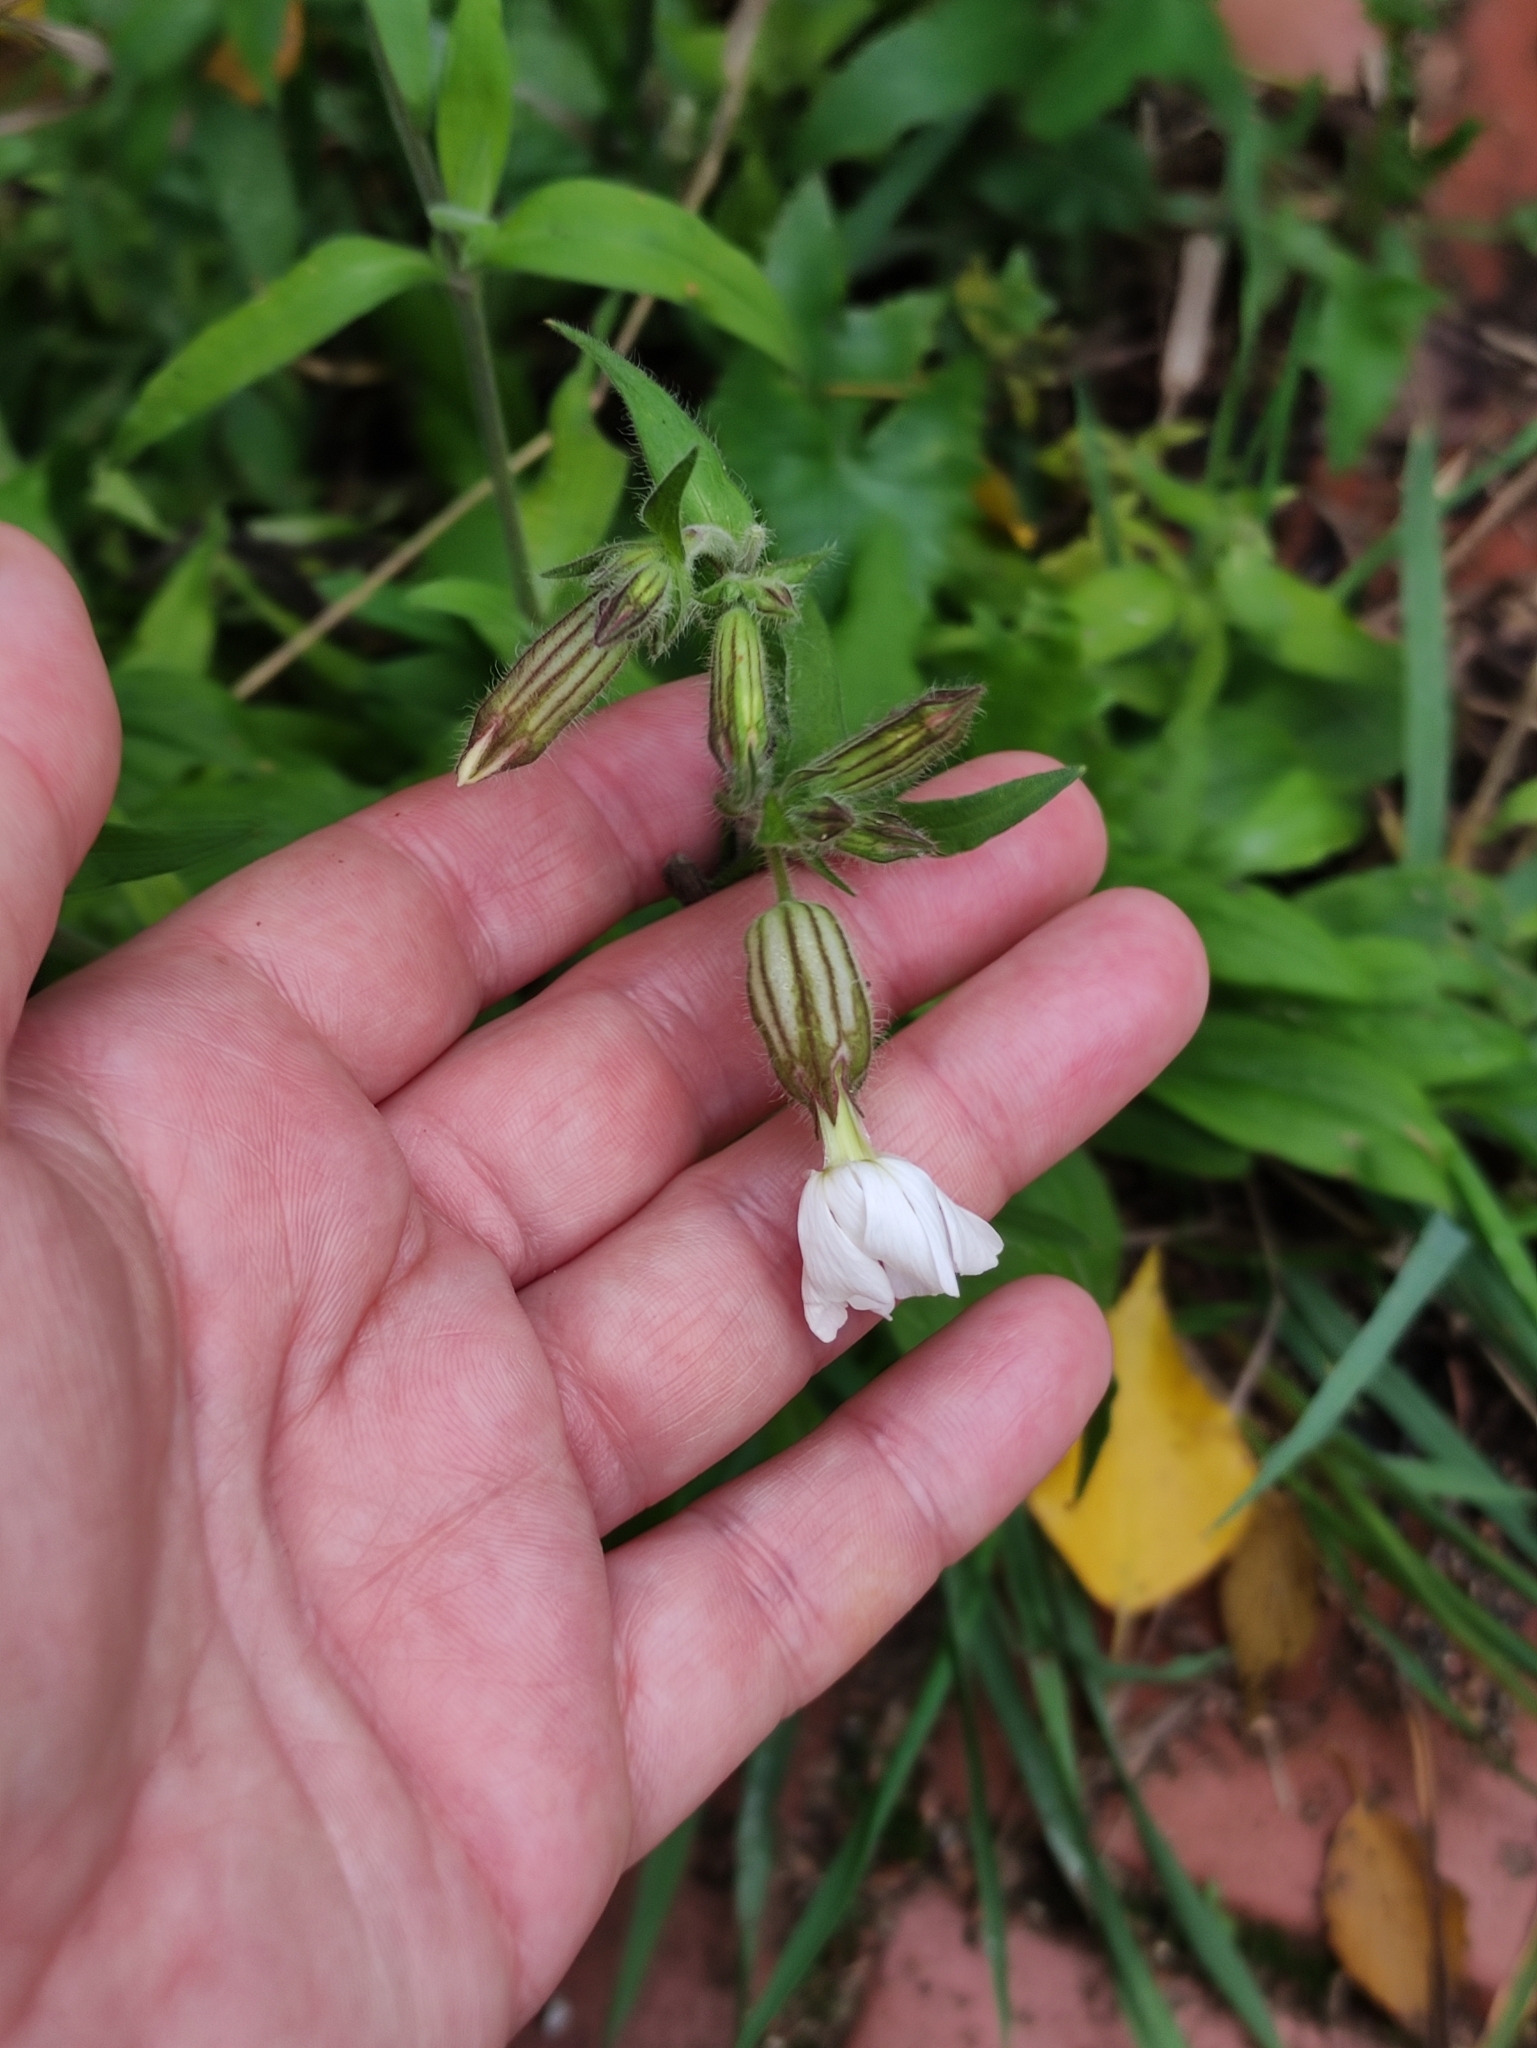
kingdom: Plantae
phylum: Tracheophyta
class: Magnoliopsida
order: Caryophyllales
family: Caryophyllaceae
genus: Silene
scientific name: Silene latifolia
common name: White campion
